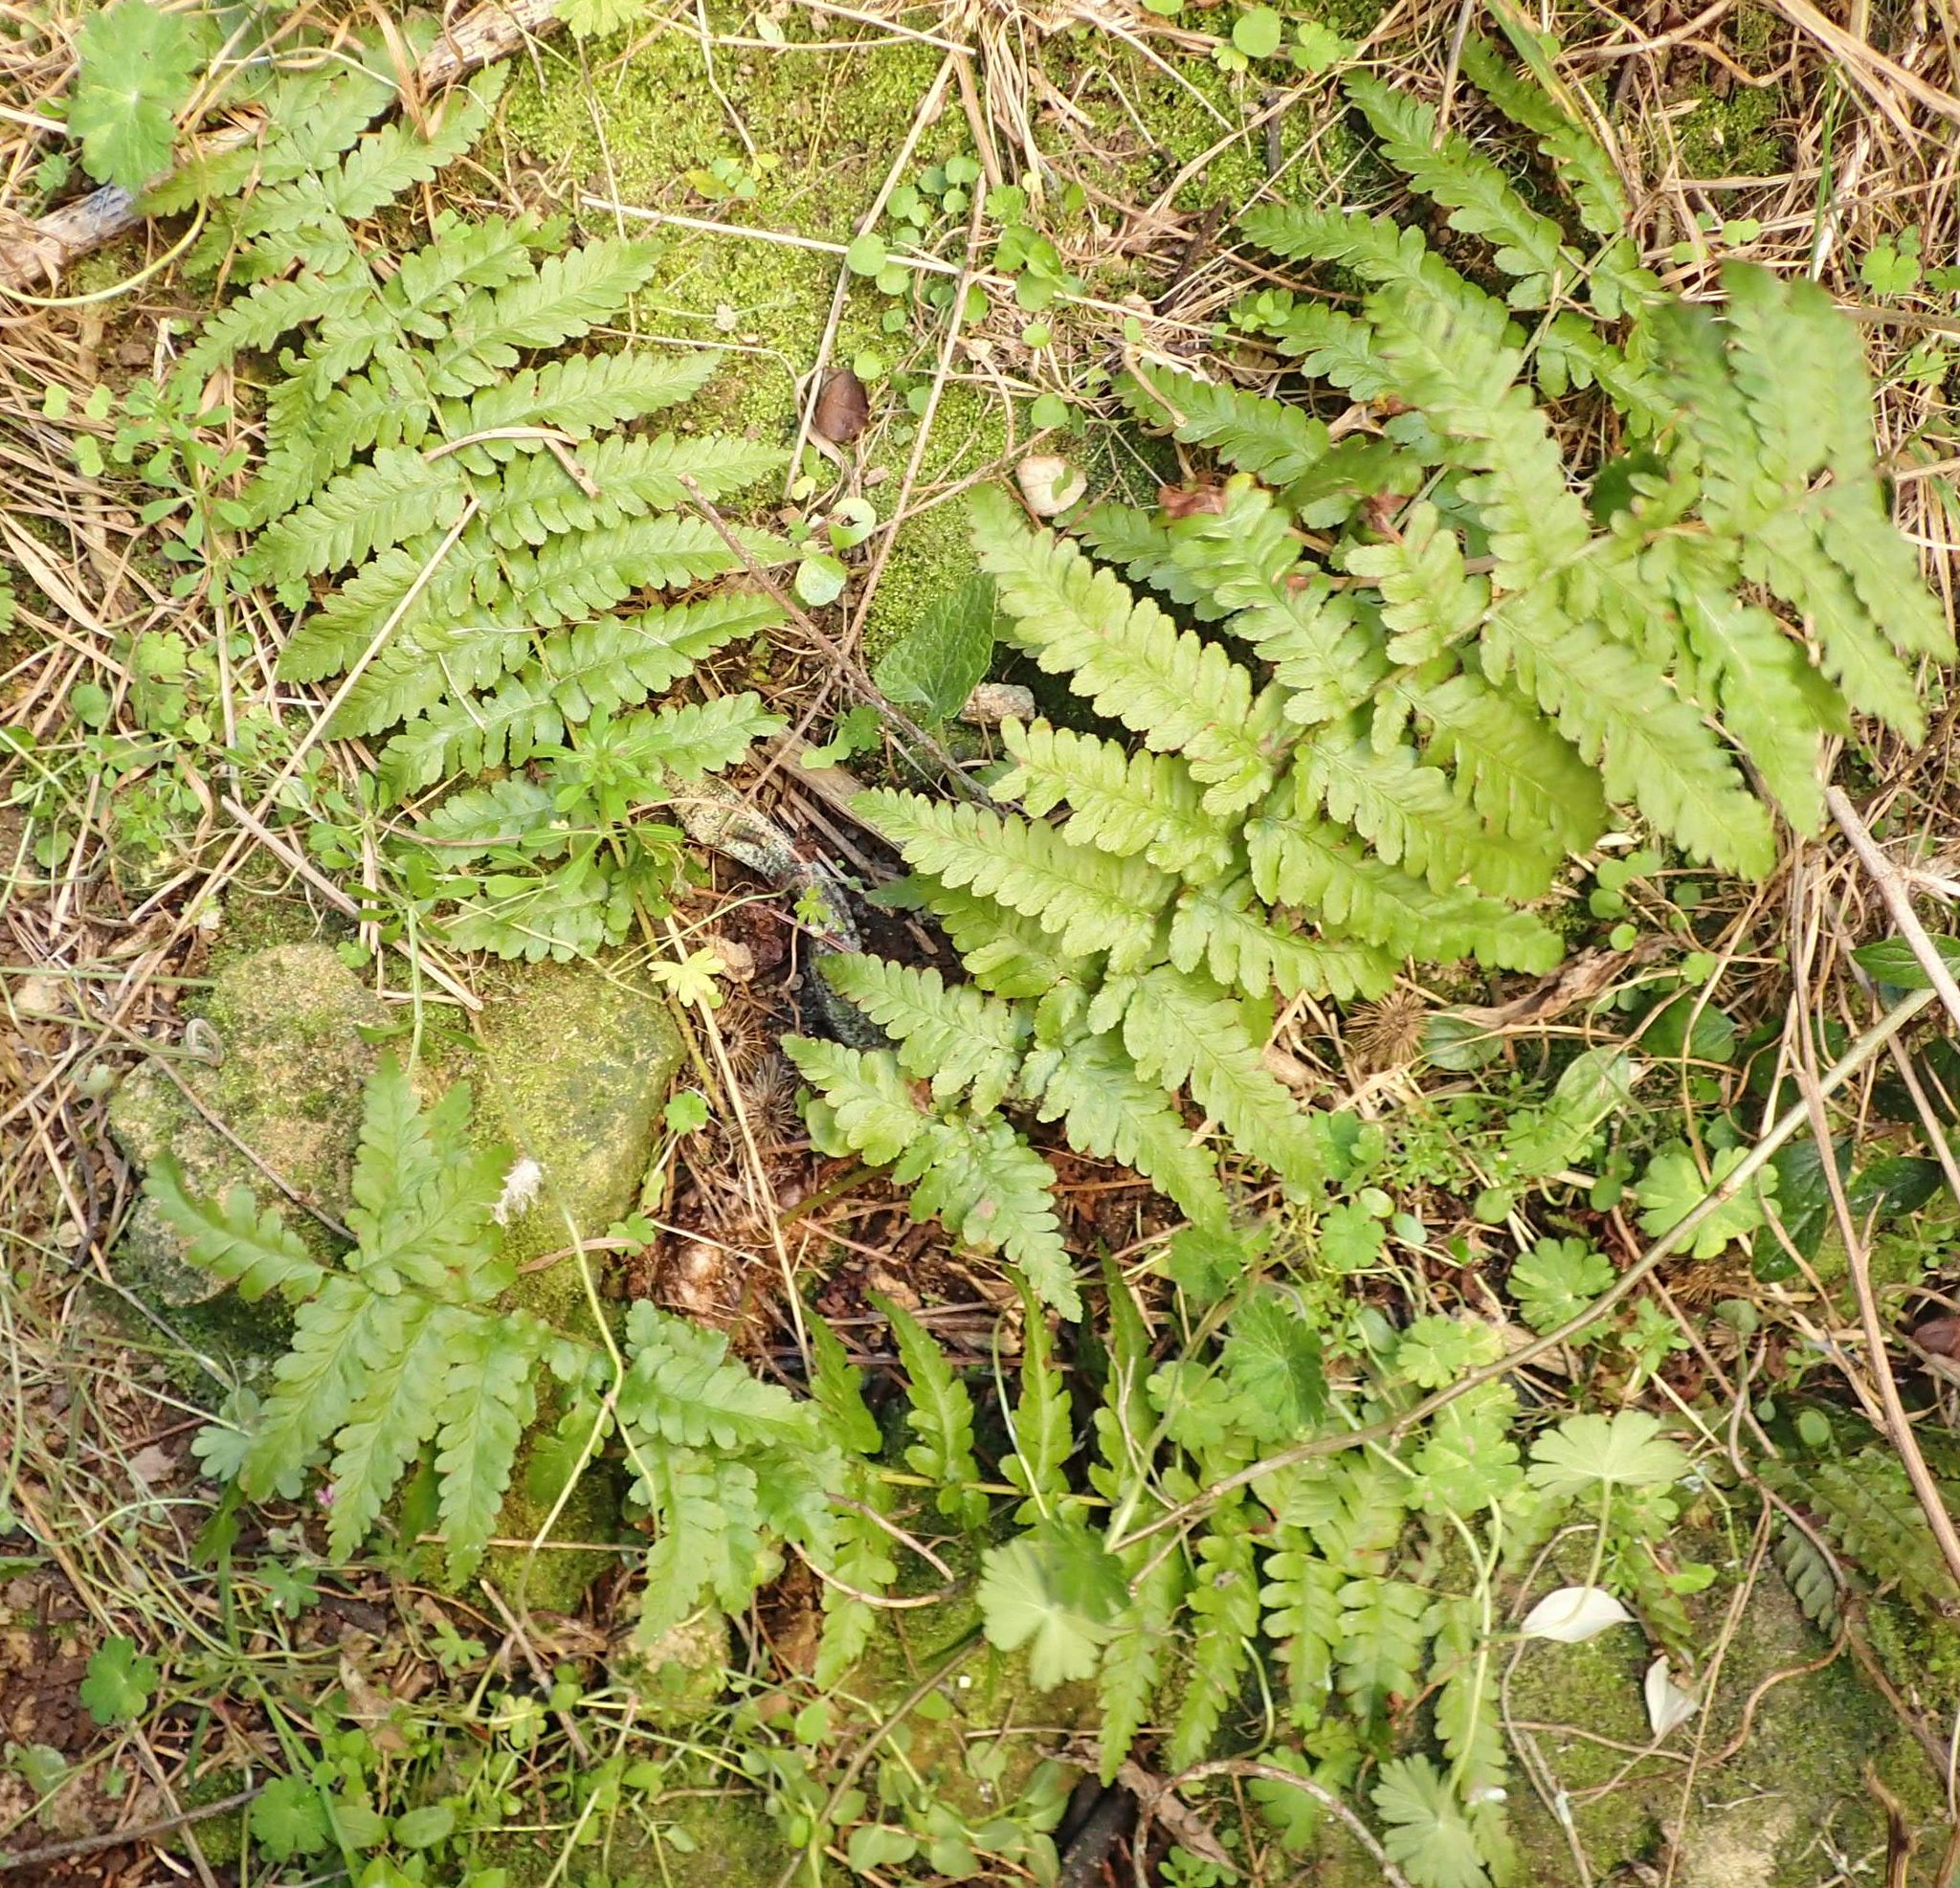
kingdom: Plantae
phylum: Tracheophyta
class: Polypodiopsida
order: Polypodiales
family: Dryopteridaceae
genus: Dryopteris
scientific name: Dryopteris filix-mas
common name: Male fern
